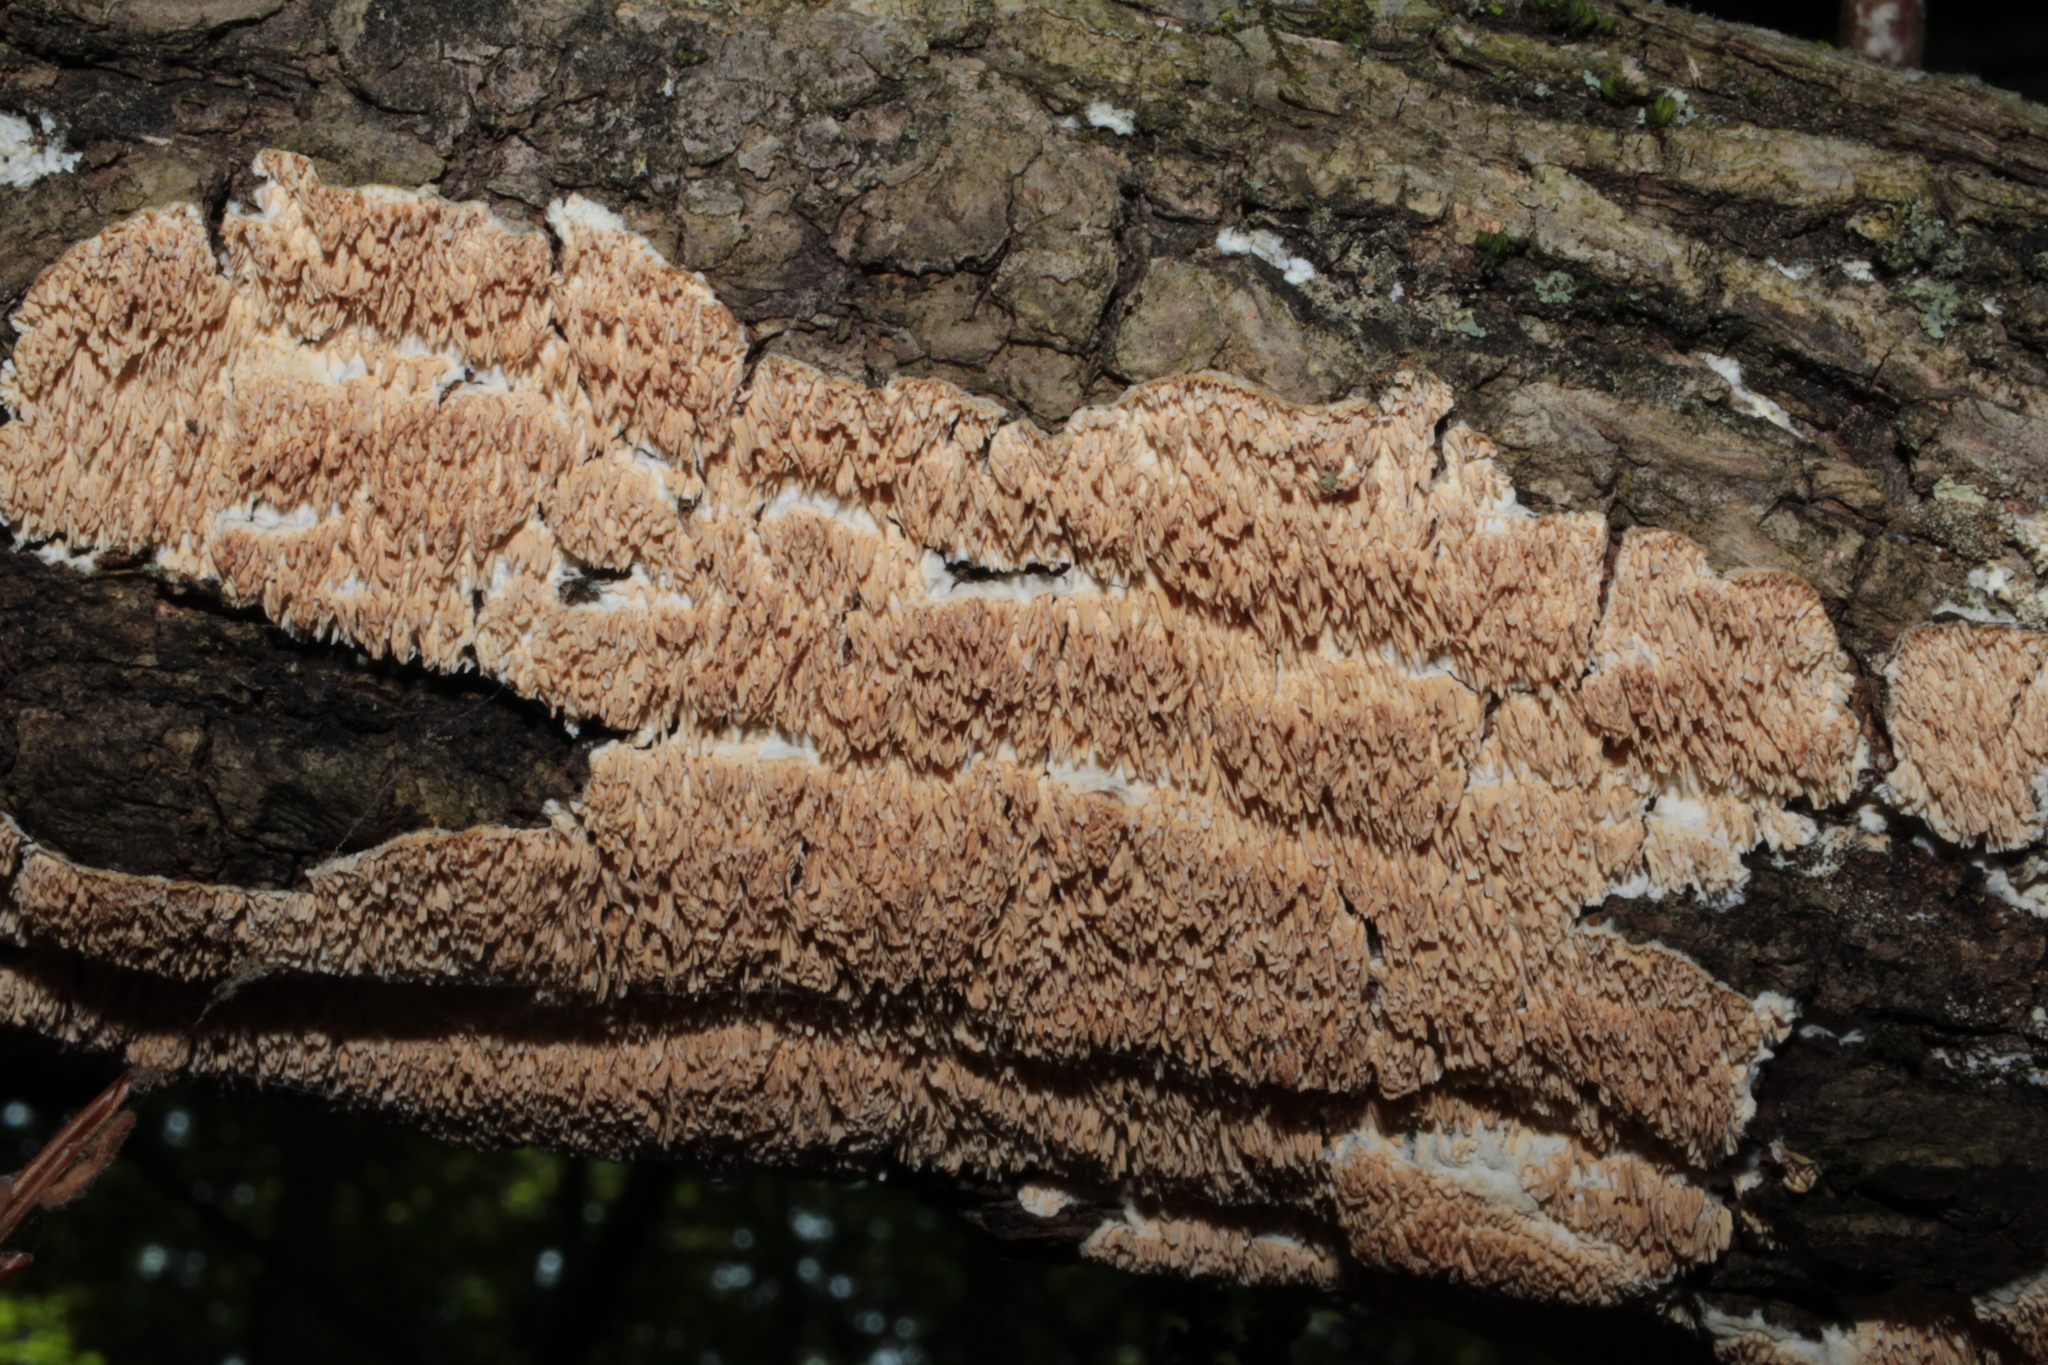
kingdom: Fungi
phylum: Basidiomycota
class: Agaricomycetes
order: Polyporales
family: Irpicaceae
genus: Irpex
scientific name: Irpex lacteus
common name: Milk-white toothed polypore
